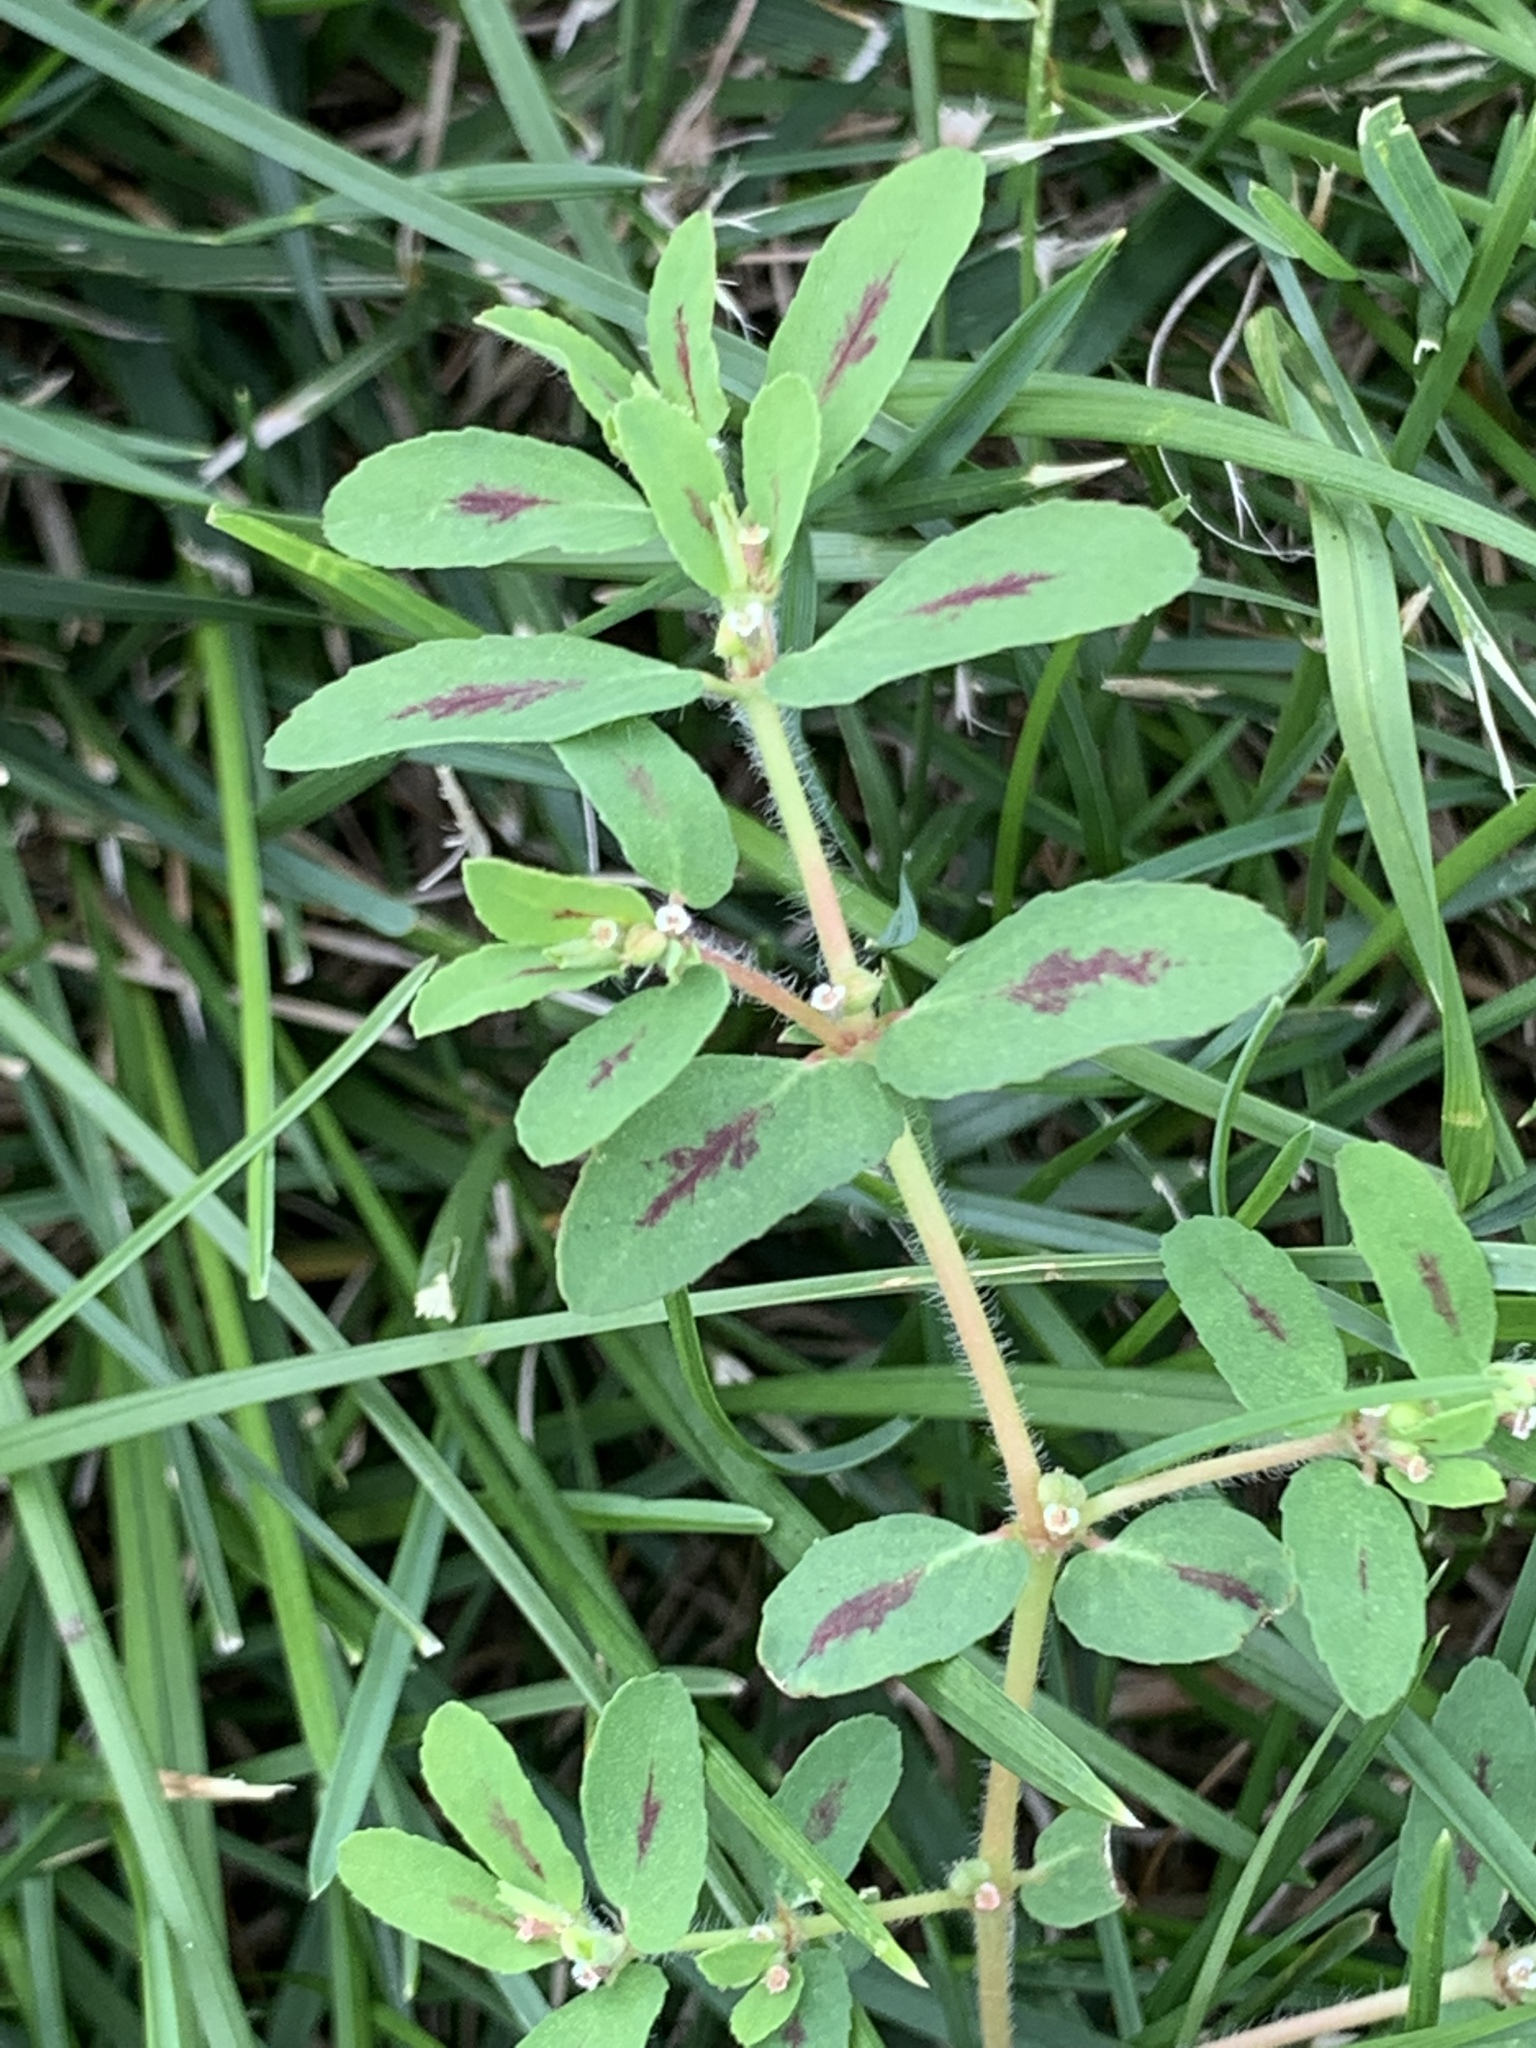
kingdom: Plantae
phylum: Tracheophyta
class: Magnoliopsida
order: Malpighiales
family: Euphorbiaceae
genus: Euphorbia
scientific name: Euphorbia maculata
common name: Spotted spurge
